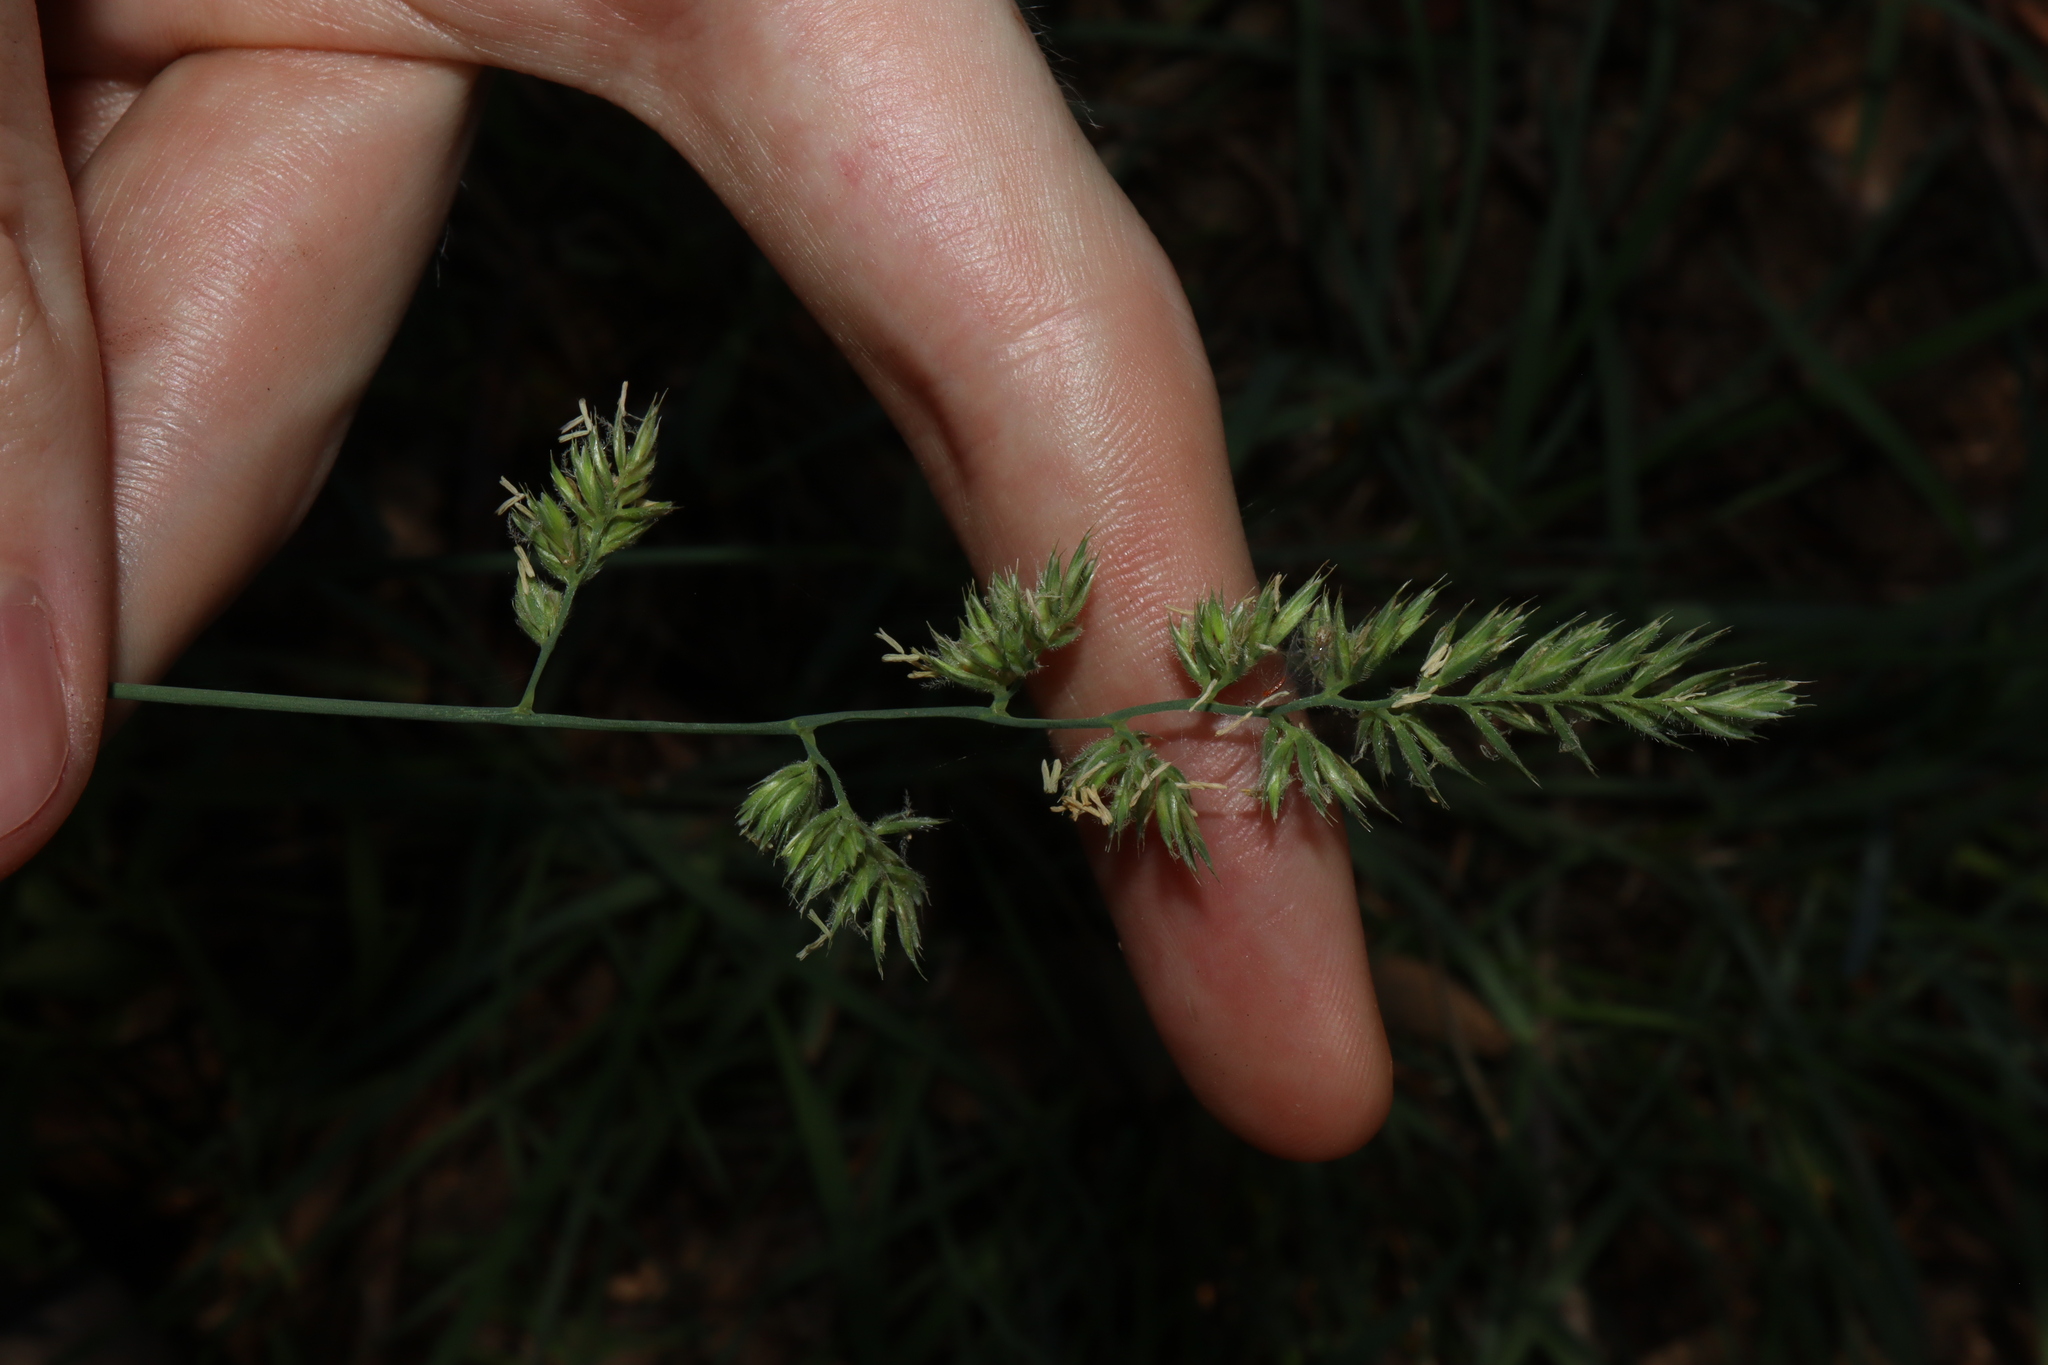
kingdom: Plantae
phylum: Tracheophyta
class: Liliopsida
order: Poales
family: Poaceae
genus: Dactylis
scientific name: Dactylis glomerata
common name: Orchardgrass
